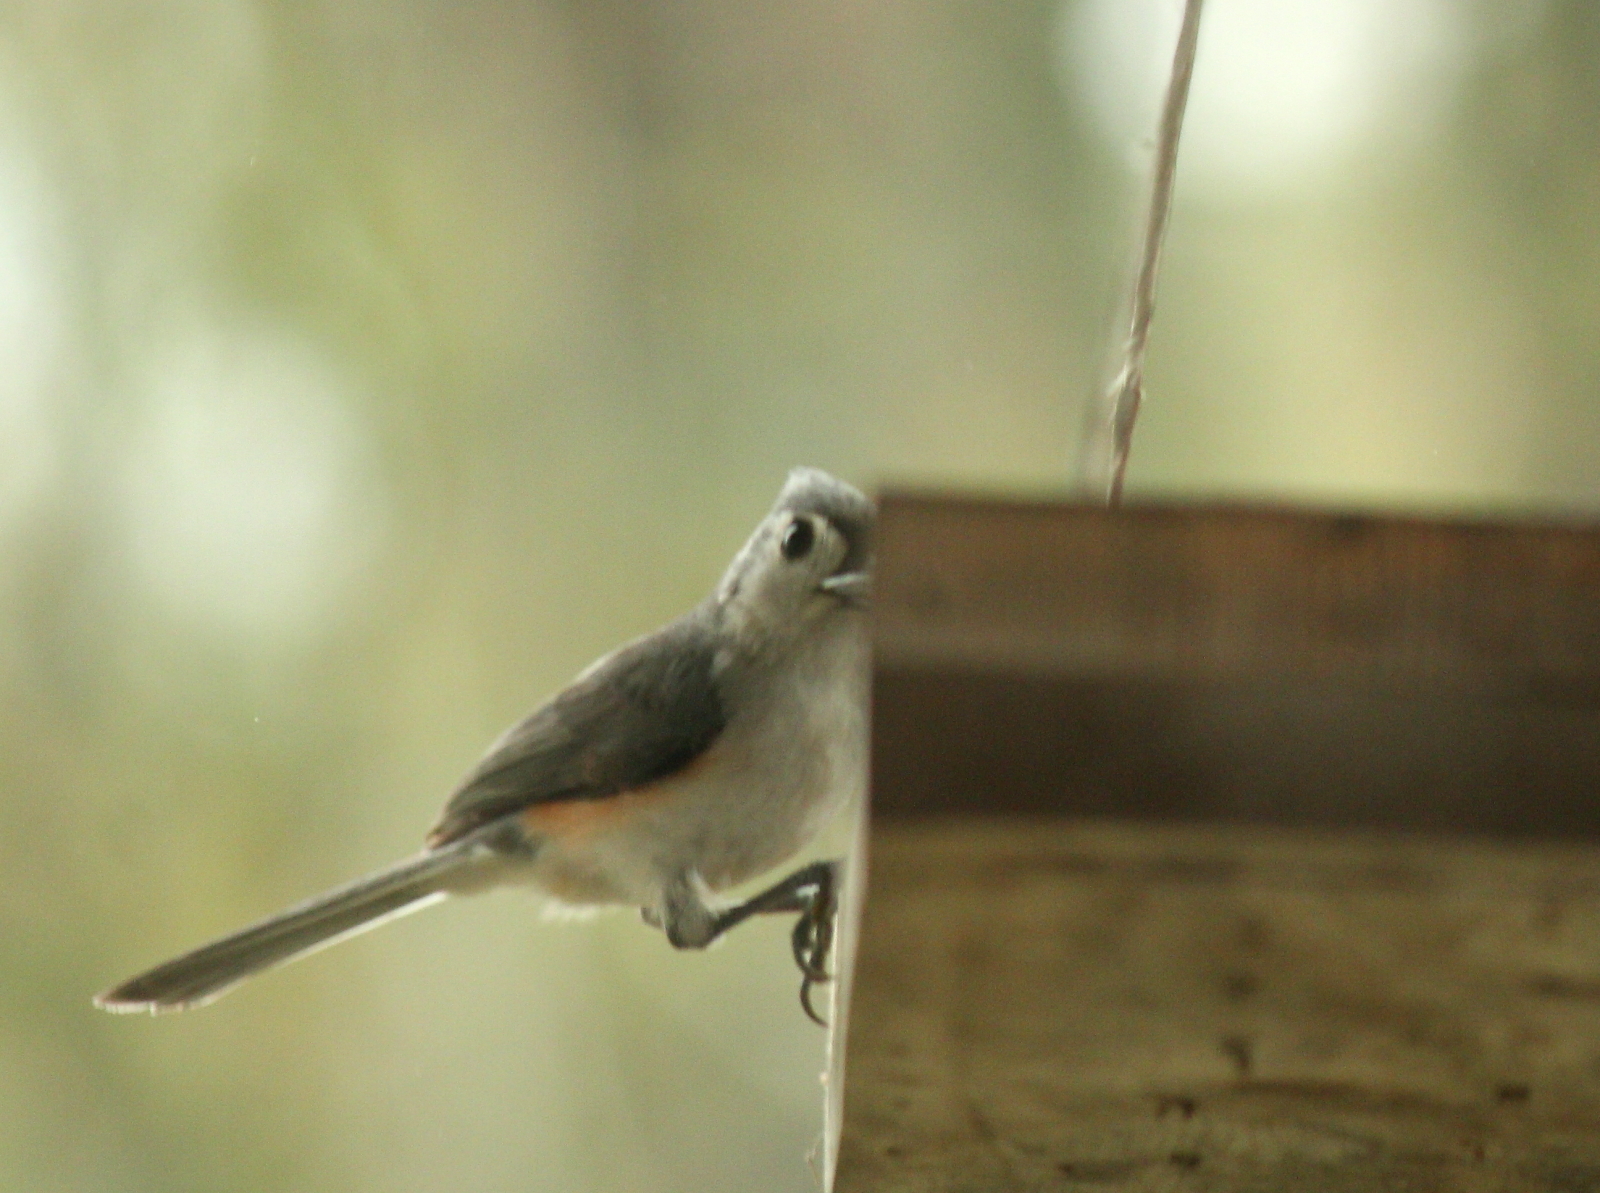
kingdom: Animalia
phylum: Chordata
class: Aves
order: Passeriformes
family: Paridae
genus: Baeolophus
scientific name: Baeolophus bicolor
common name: Tufted titmouse
